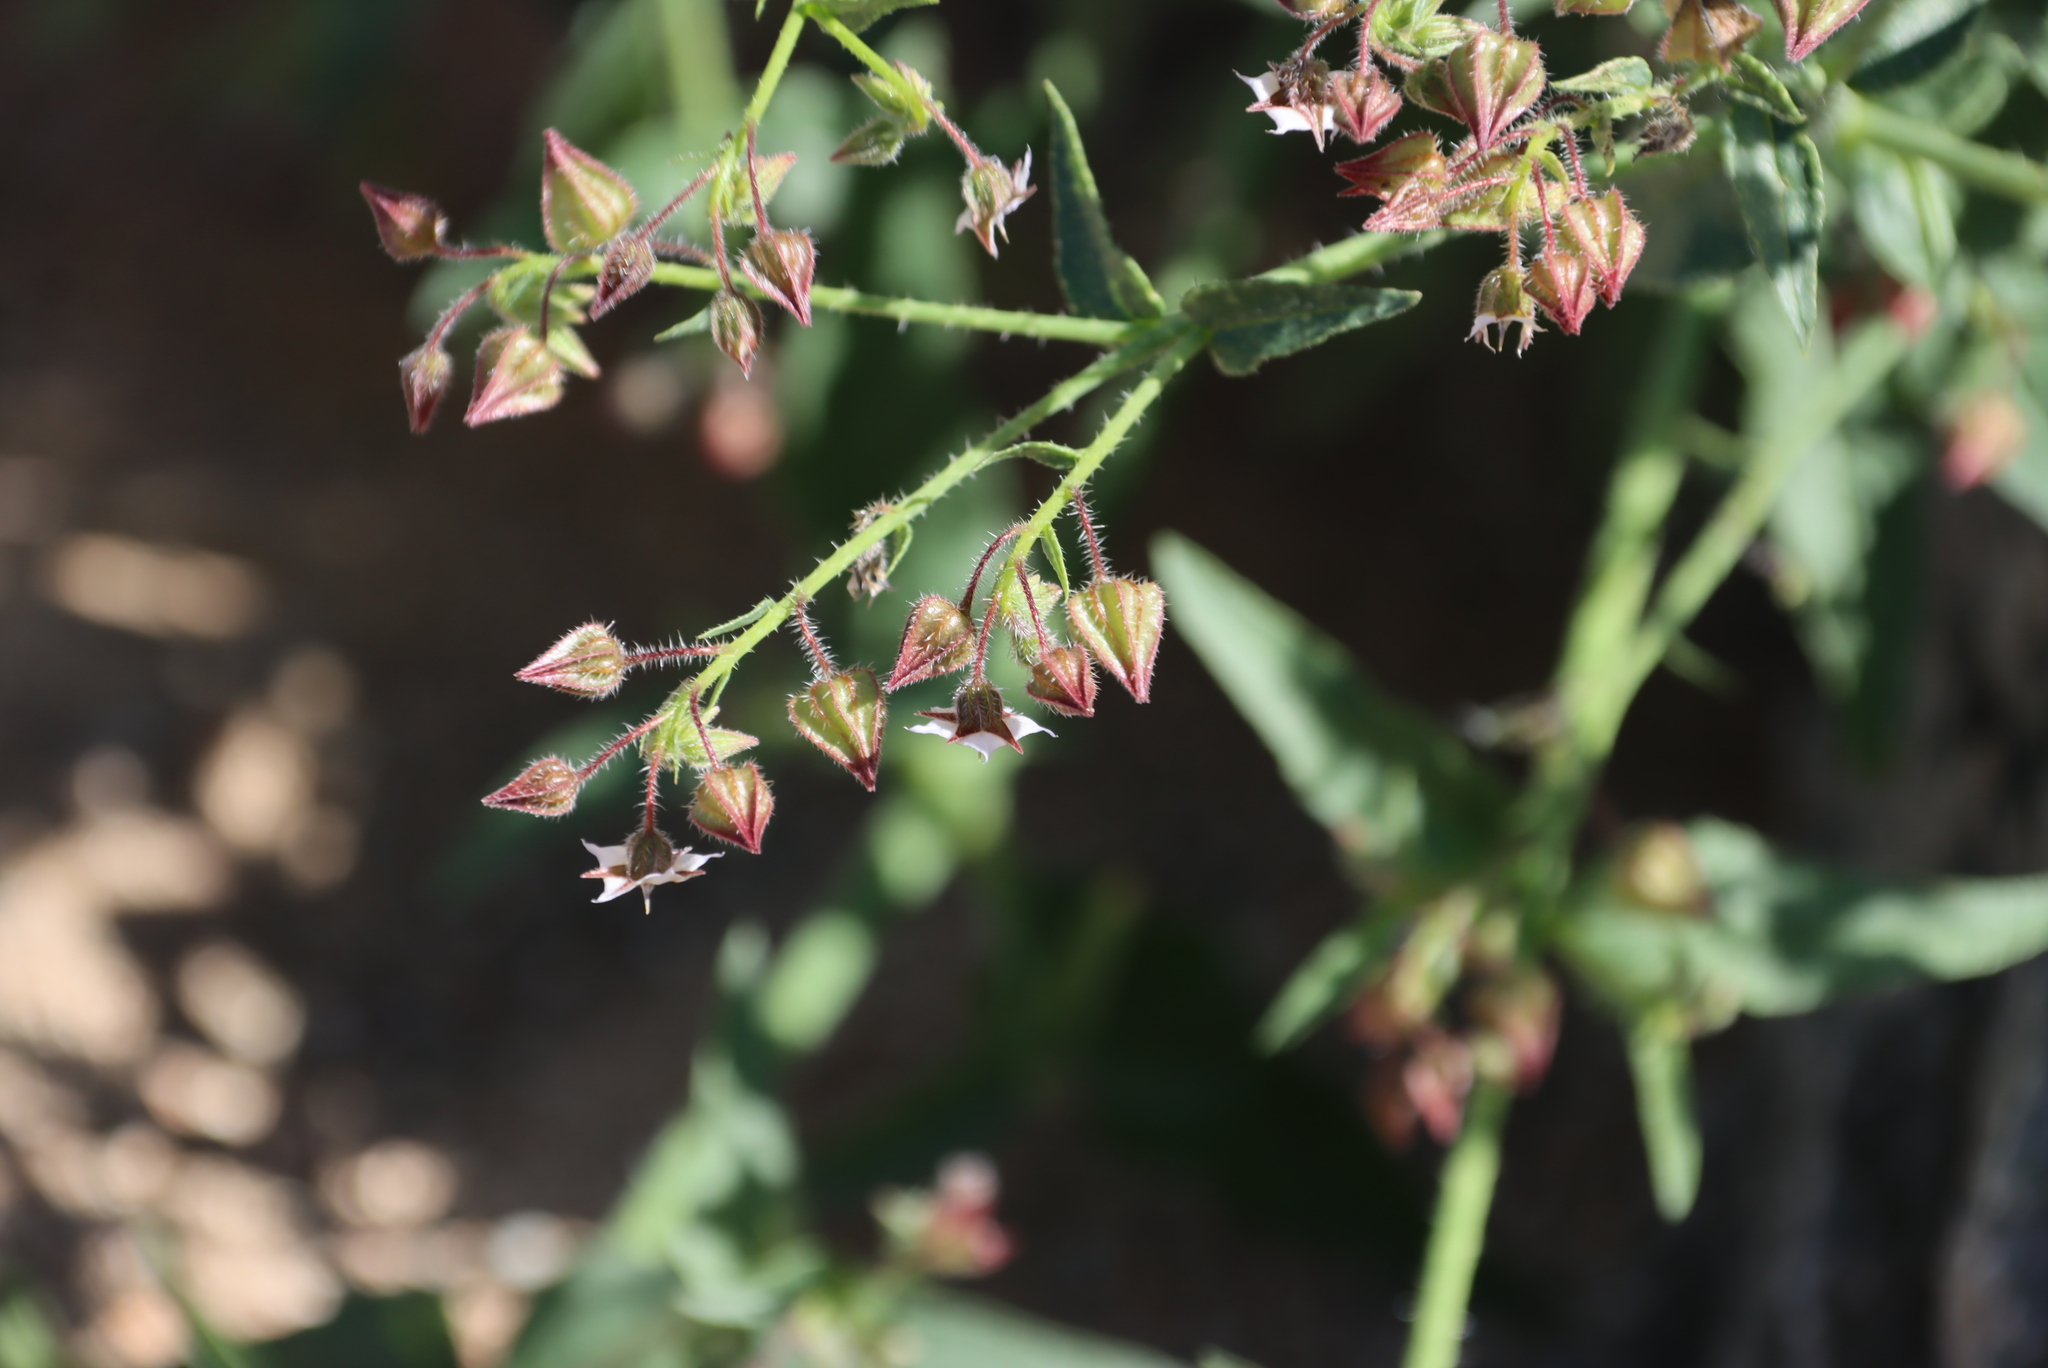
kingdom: Plantae
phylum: Tracheophyta
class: Magnoliopsida
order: Boraginales
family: Boraginaceae
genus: Trichodesma
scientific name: Trichodesma africanum
